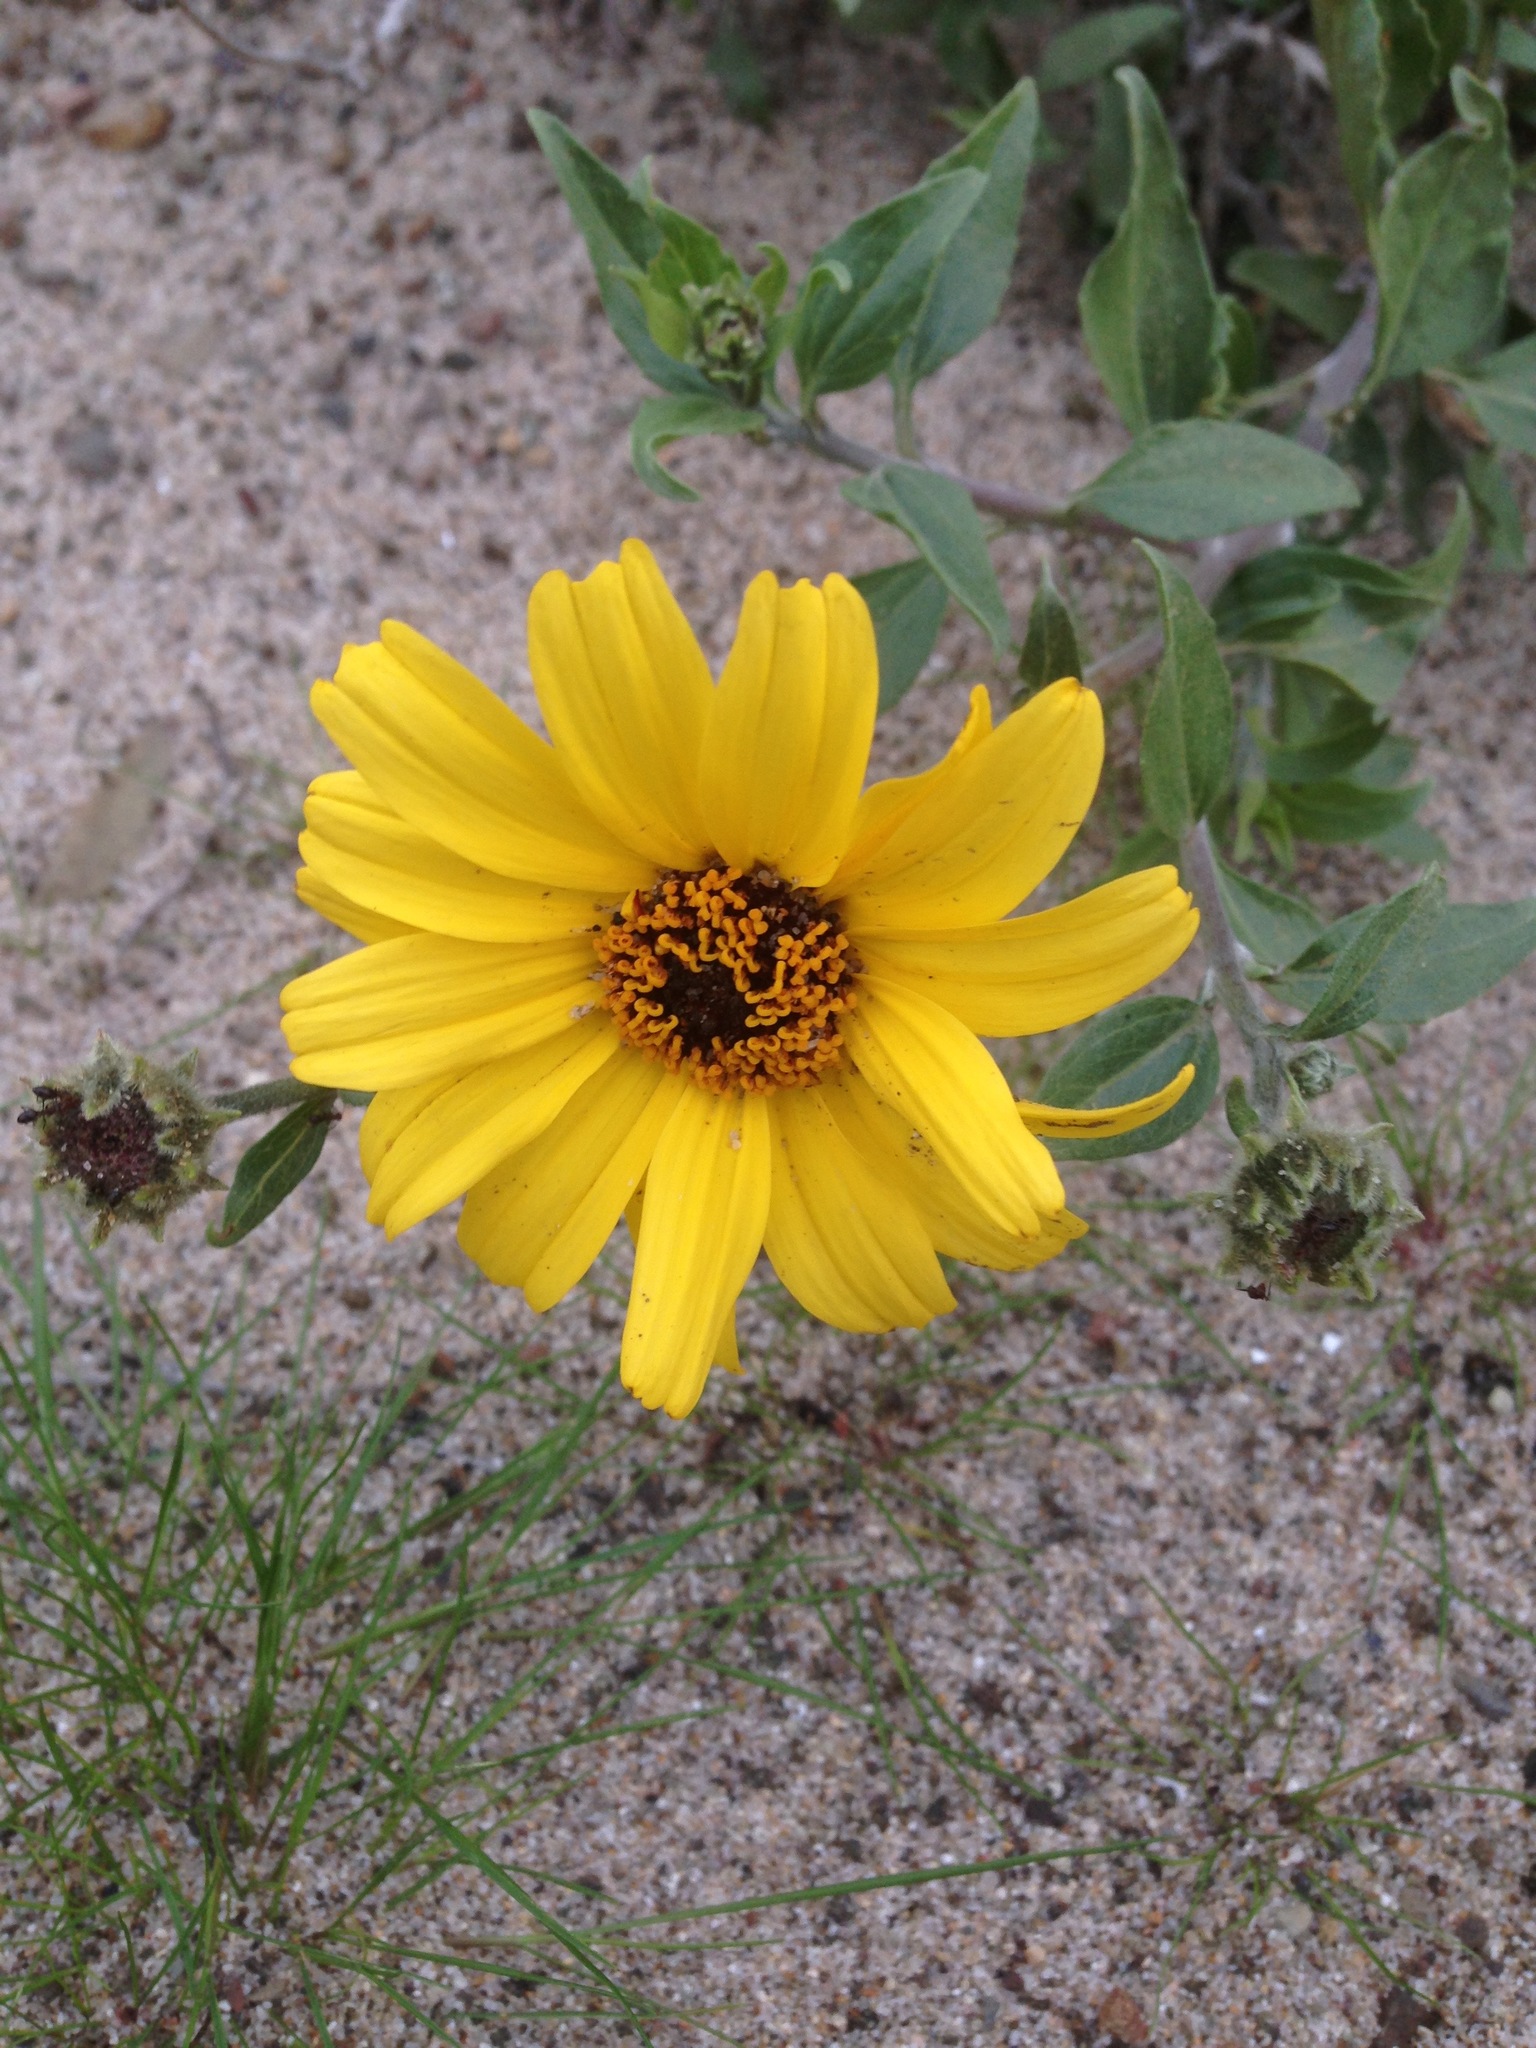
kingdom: Plantae
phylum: Tracheophyta
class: Magnoliopsida
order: Asterales
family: Asteraceae
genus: Encelia
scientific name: Encelia californica
